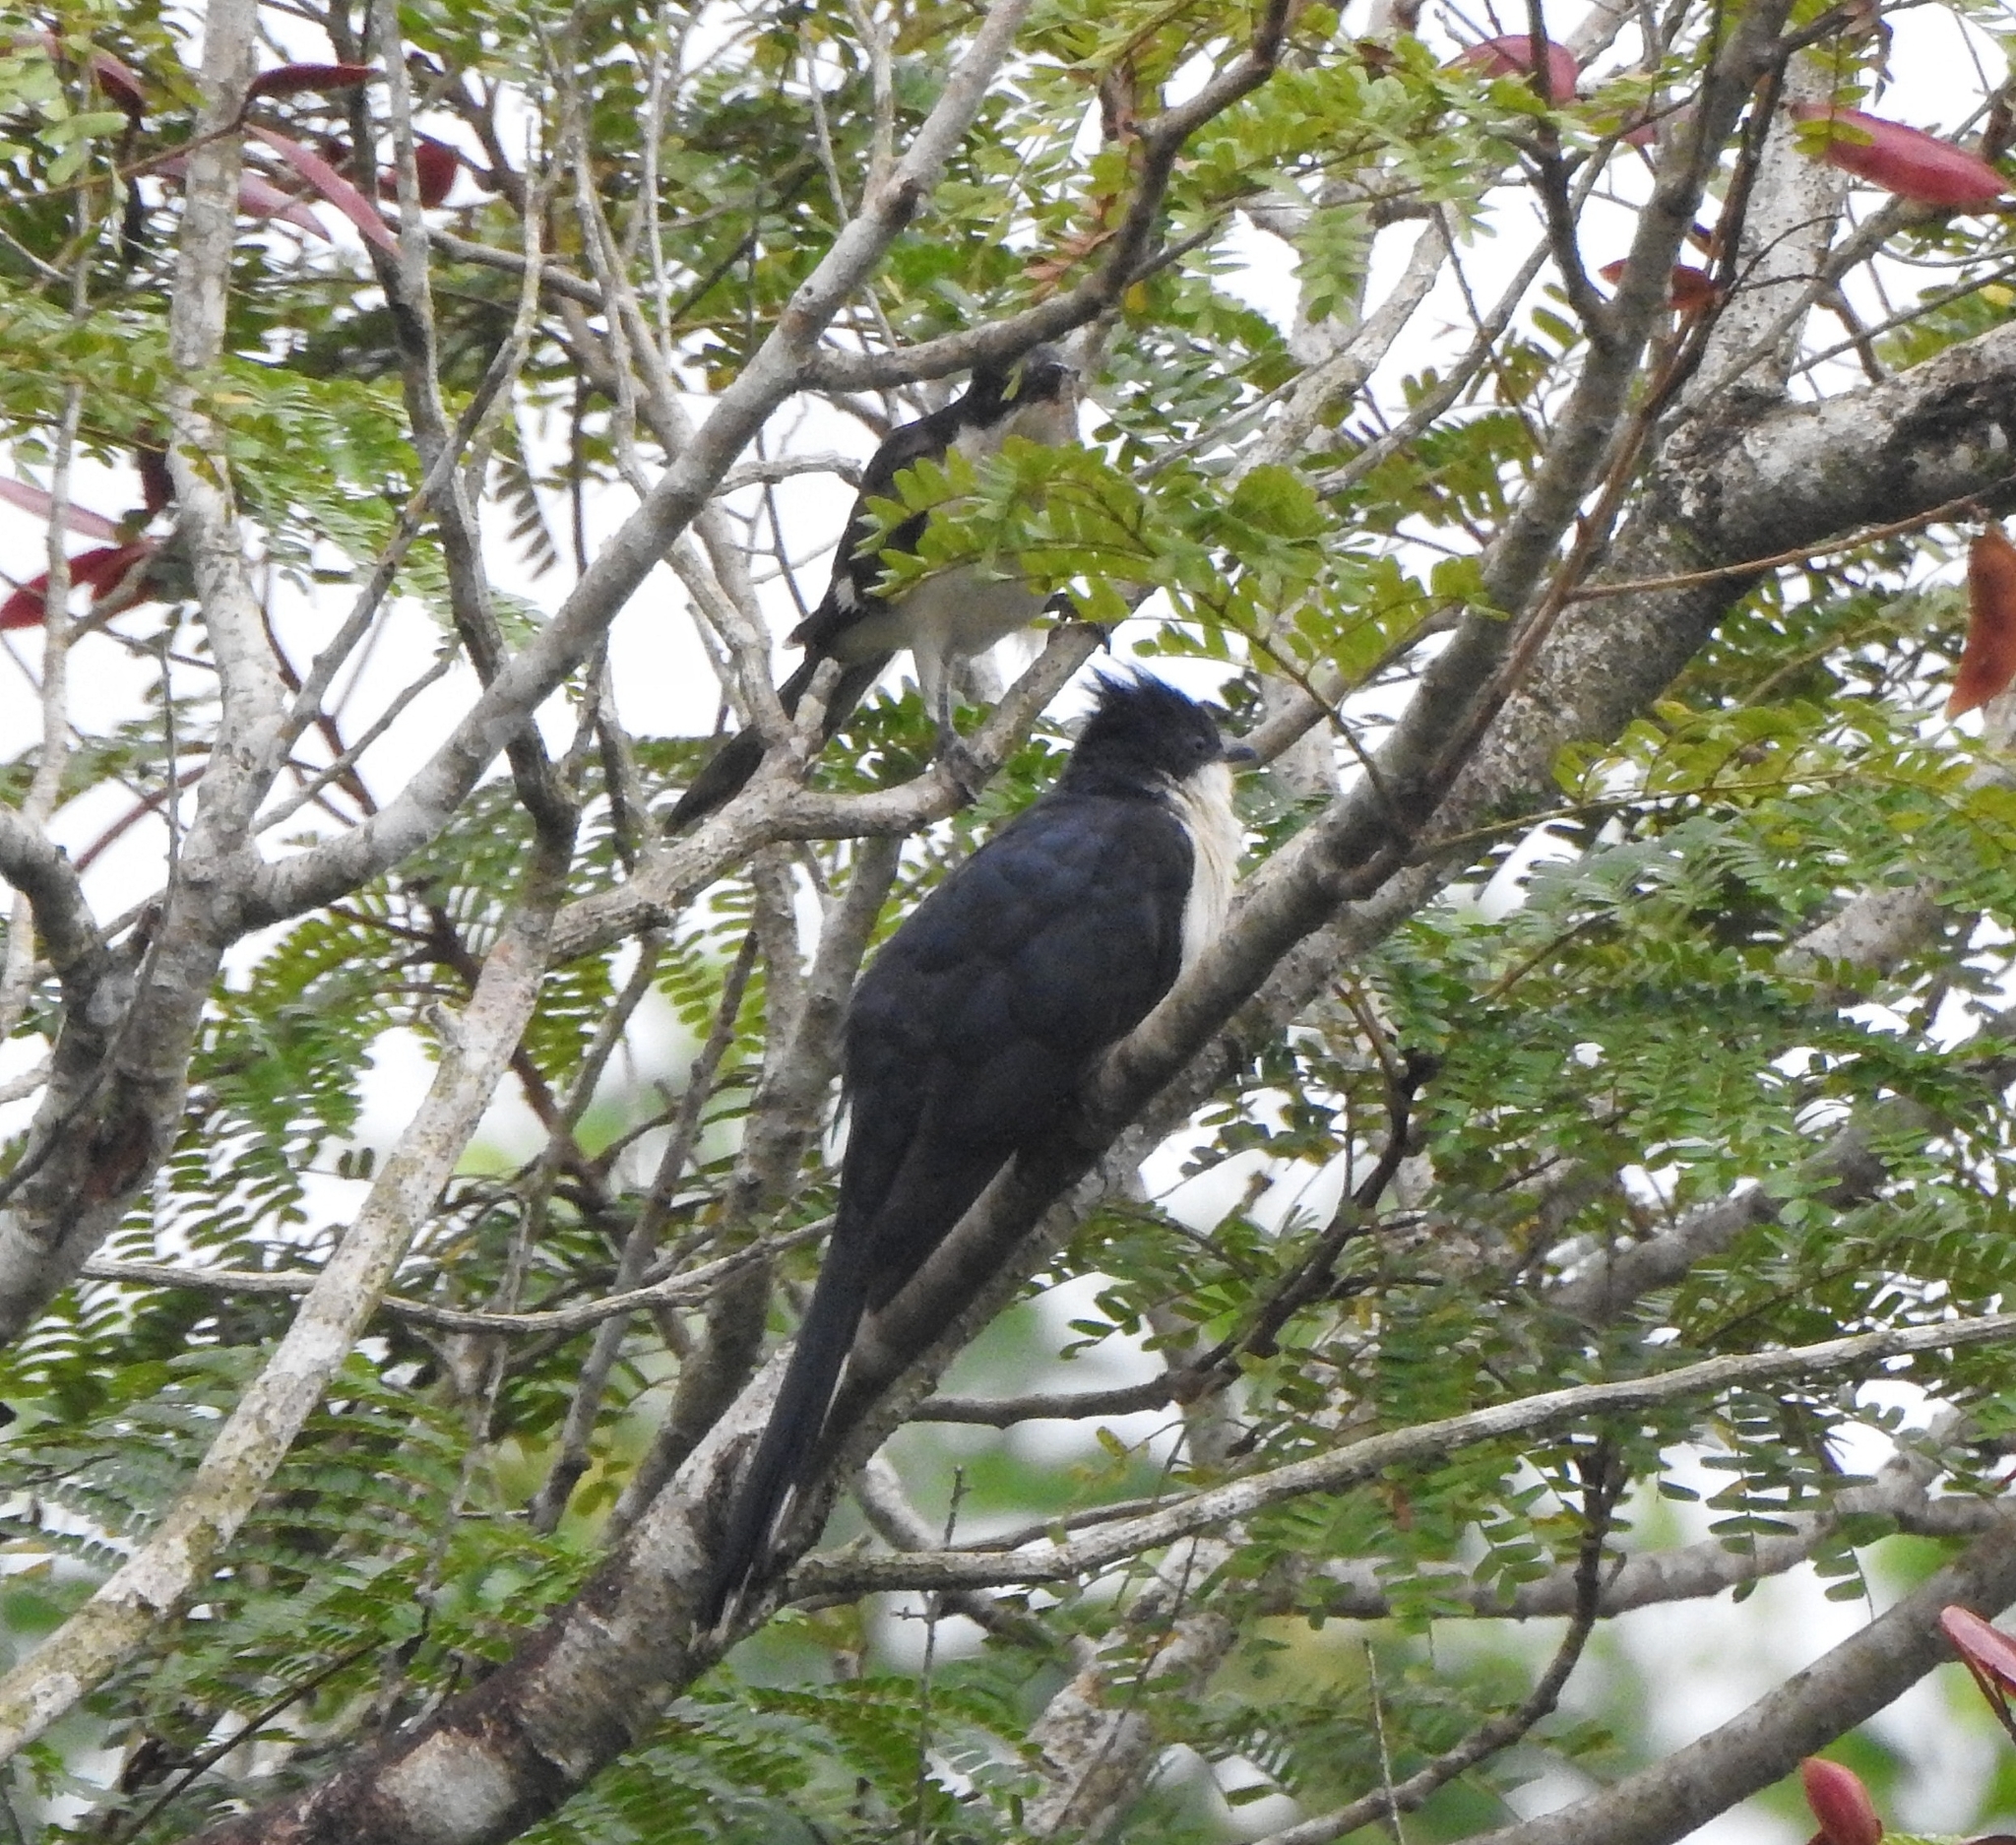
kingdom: Animalia
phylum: Chordata
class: Aves
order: Cuculiformes
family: Cuculidae
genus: Clamator
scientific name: Clamator jacobinus
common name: Jacobin cuckoo
